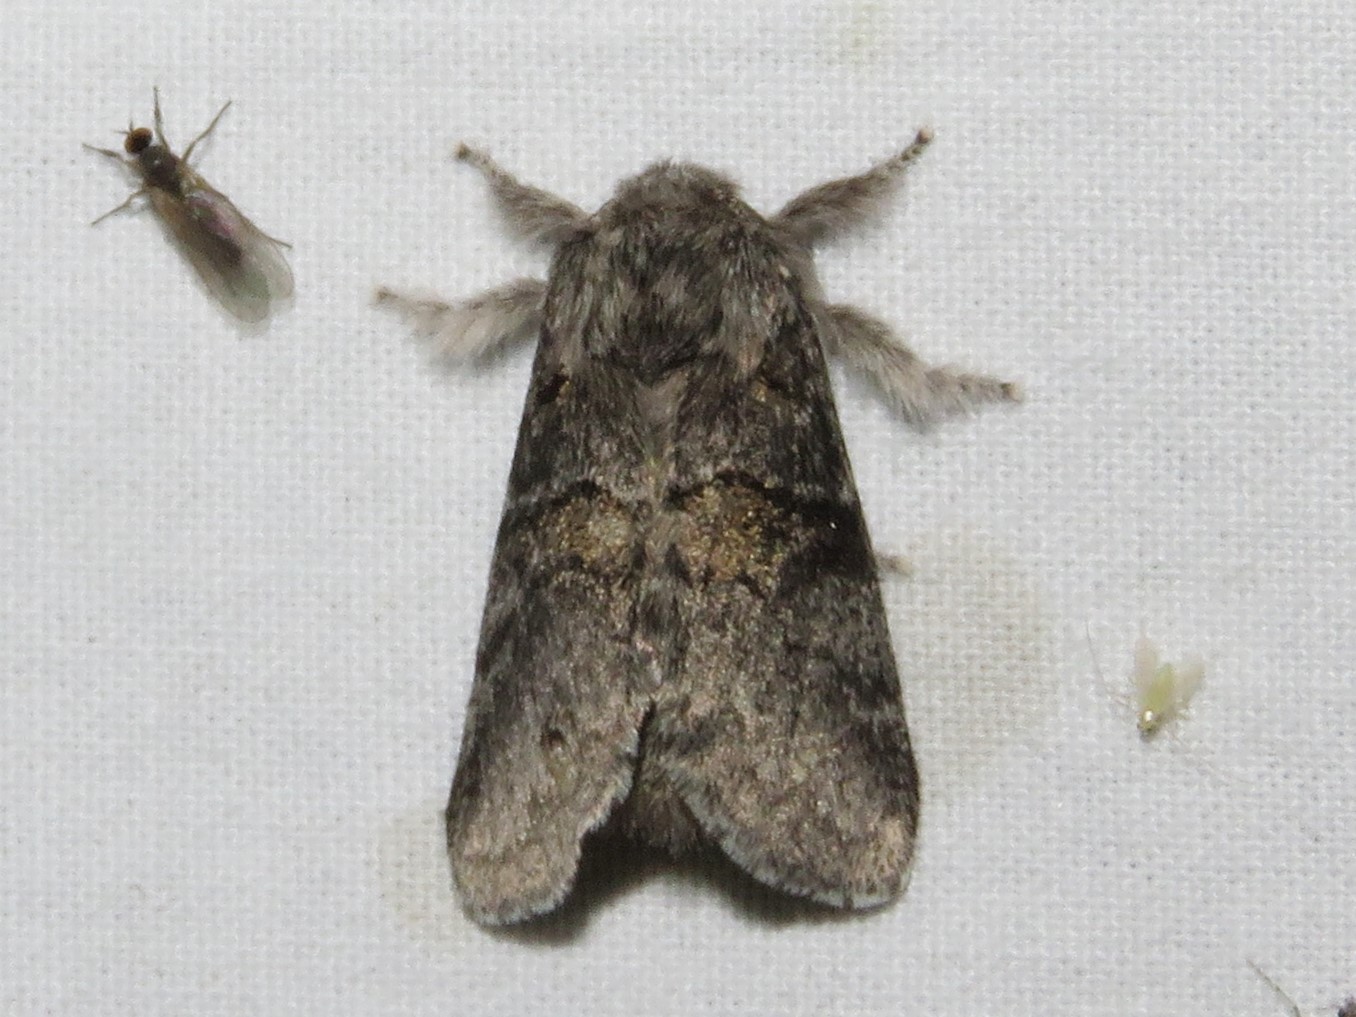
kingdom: Animalia
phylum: Arthropoda
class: Insecta
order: Lepidoptera
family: Notodontidae
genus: Gluphisia
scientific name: Gluphisia septentrionis
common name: Common gluphisia
